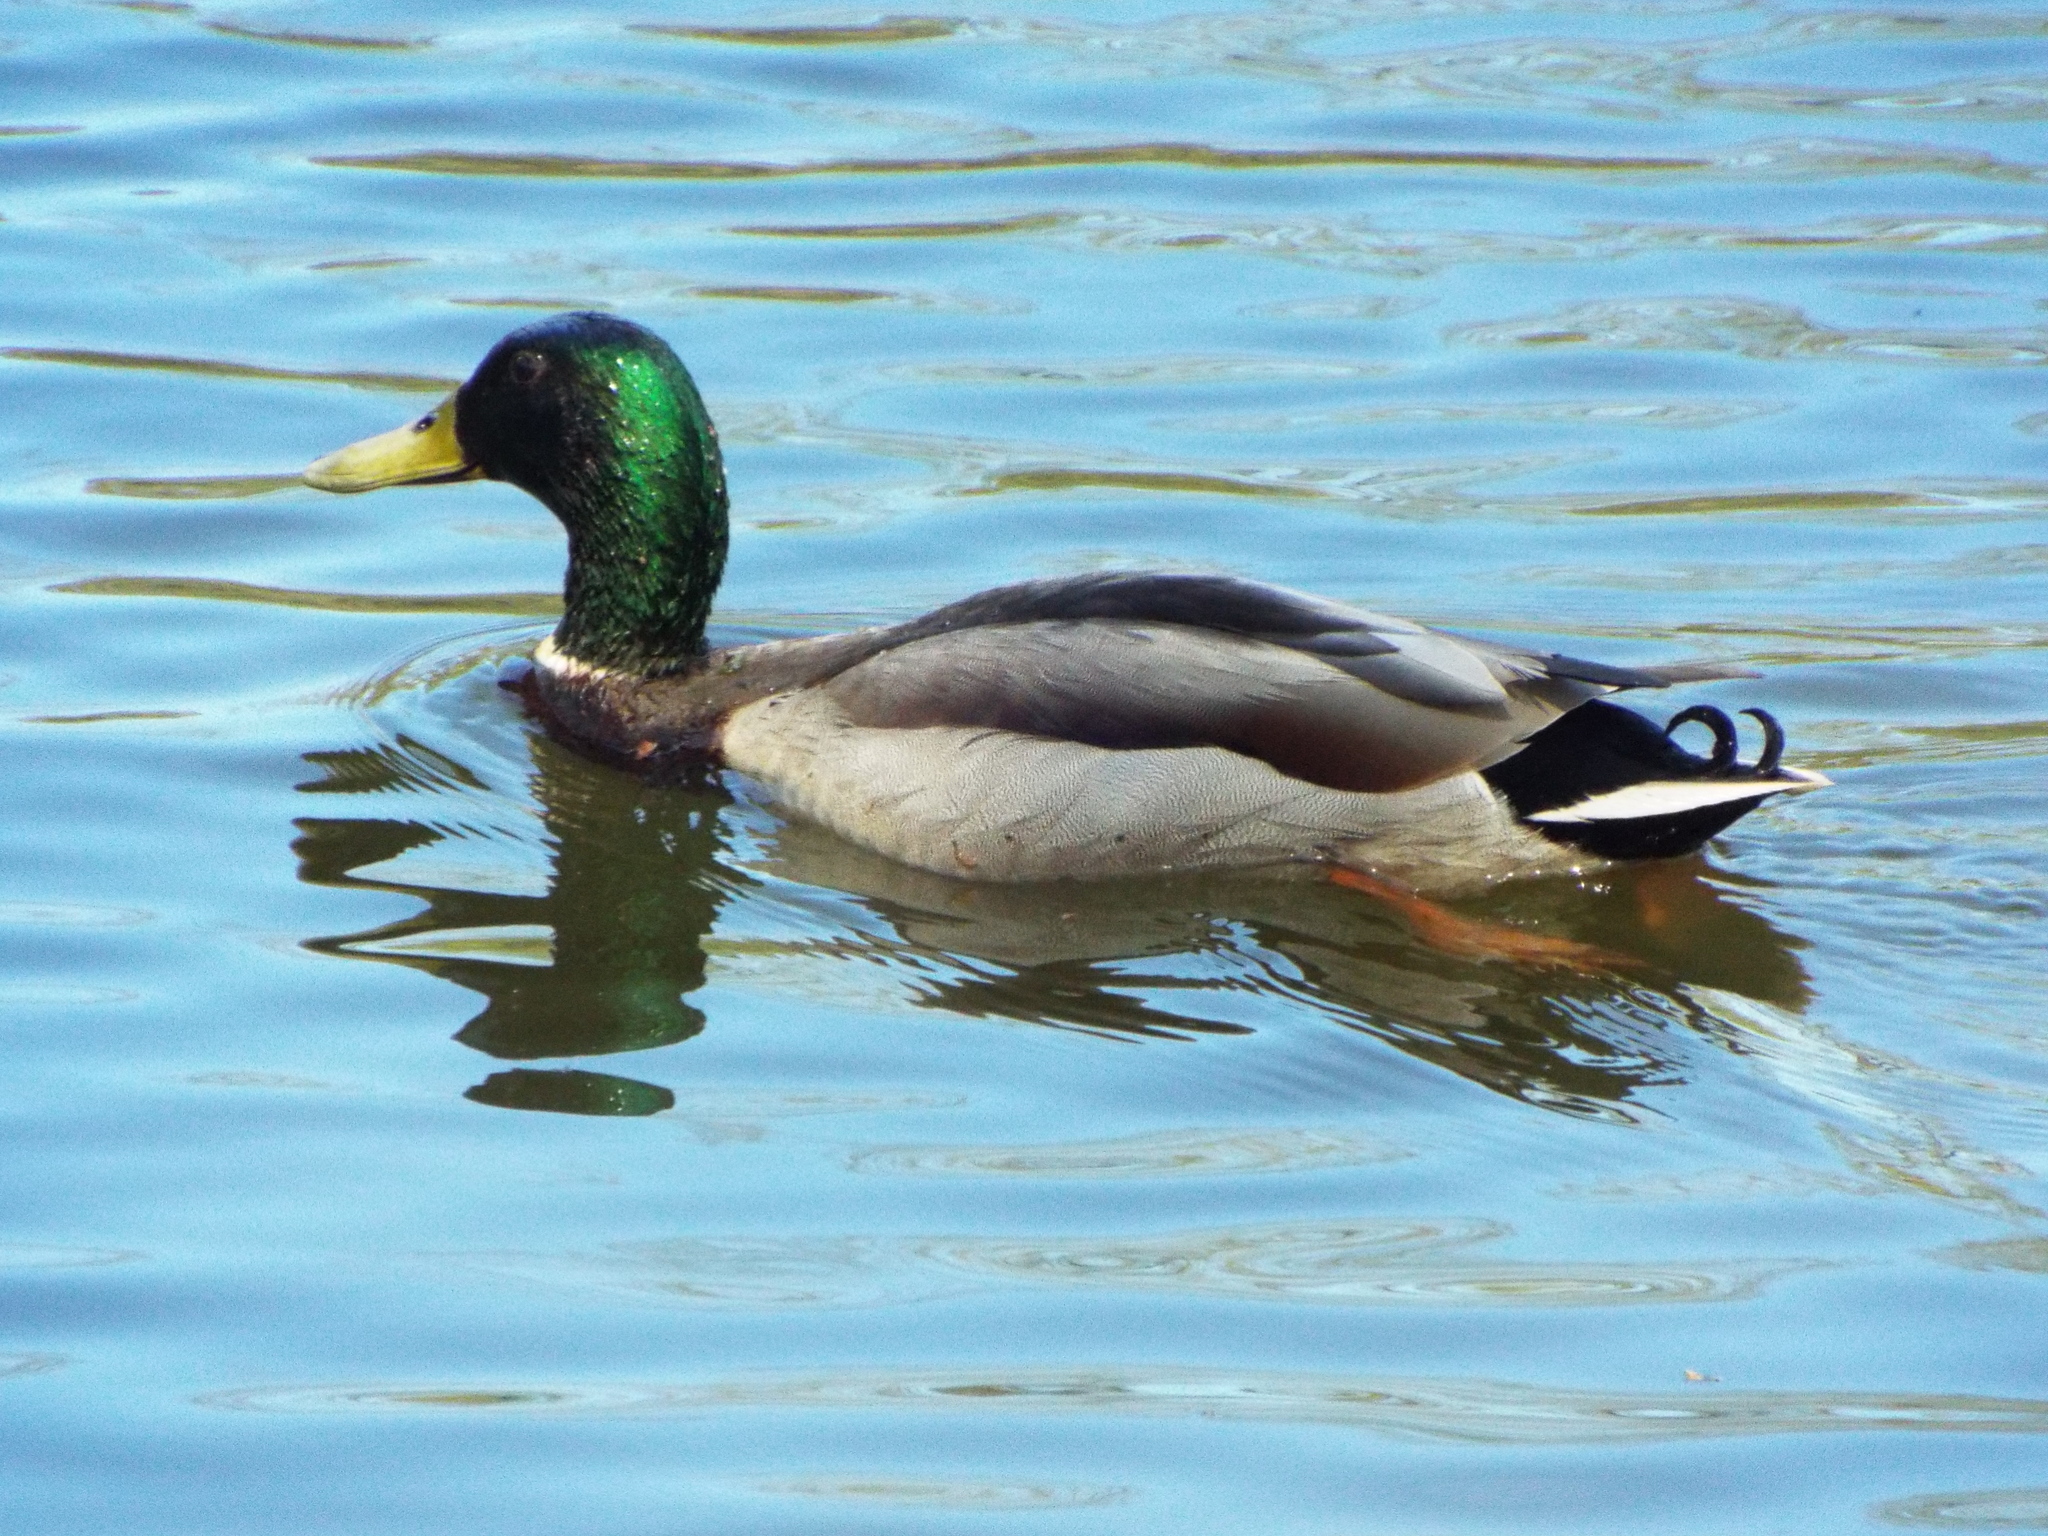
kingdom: Animalia
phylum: Chordata
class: Aves
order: Anseriformes
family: Anatidae
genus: Anas
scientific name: Anas platyrhynchos
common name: Mallard
